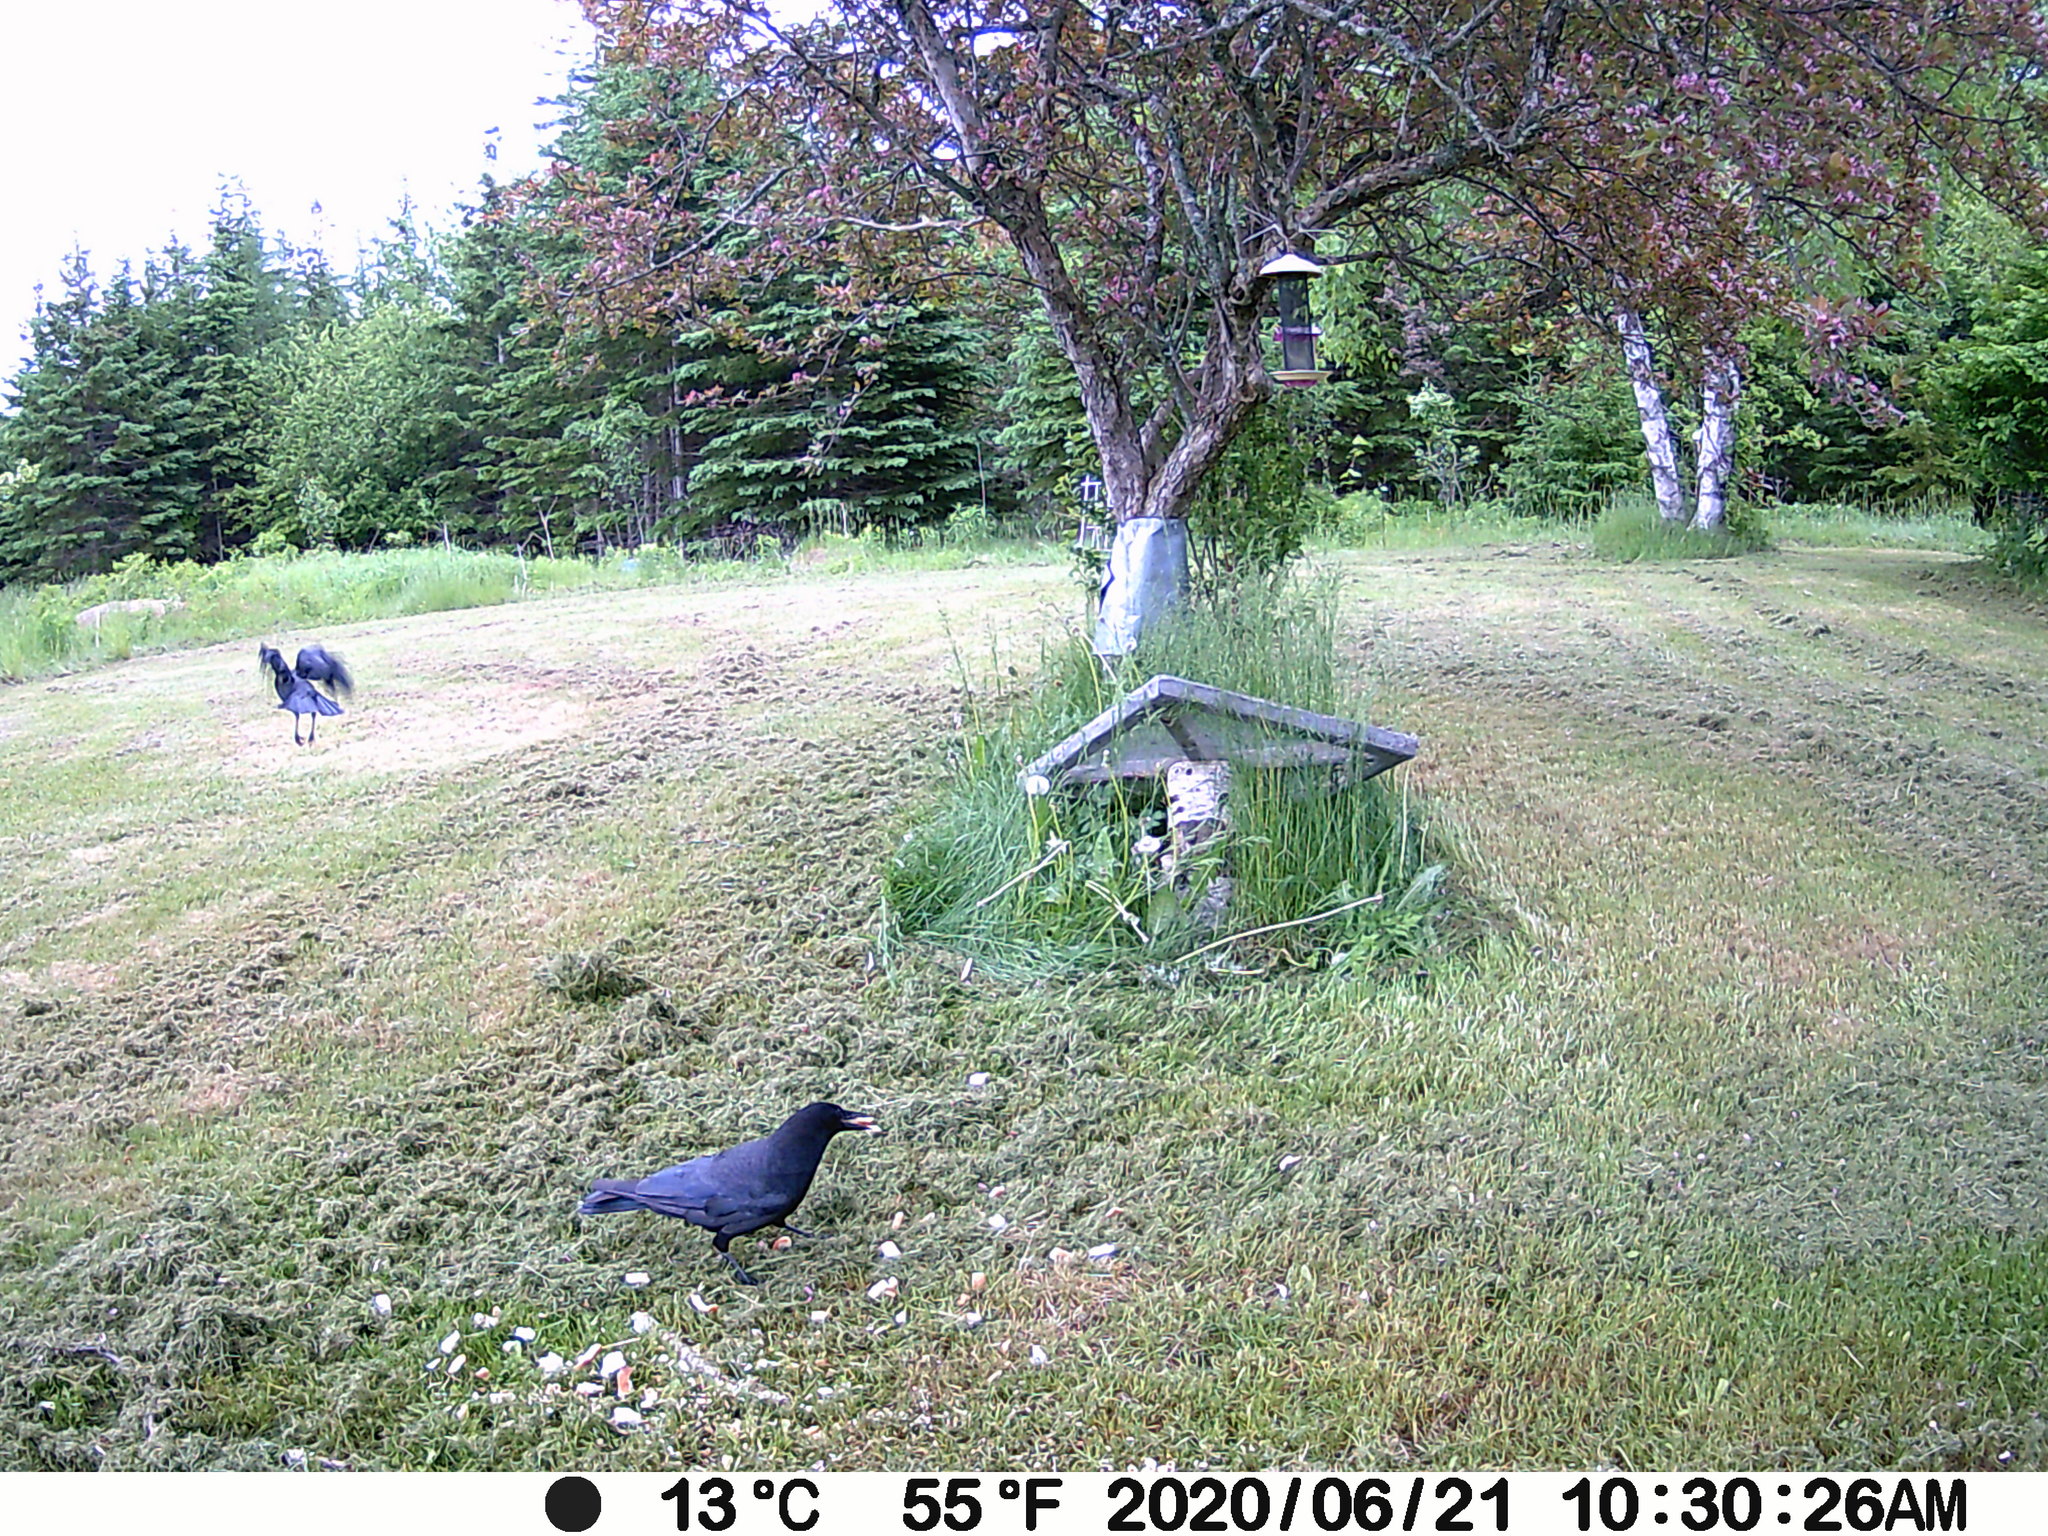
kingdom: Animalia
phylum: Chordata
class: Aves
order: Passeriformes
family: Corvidae
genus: Corvus
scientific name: Corvus brachyrhynchos
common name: American crow
